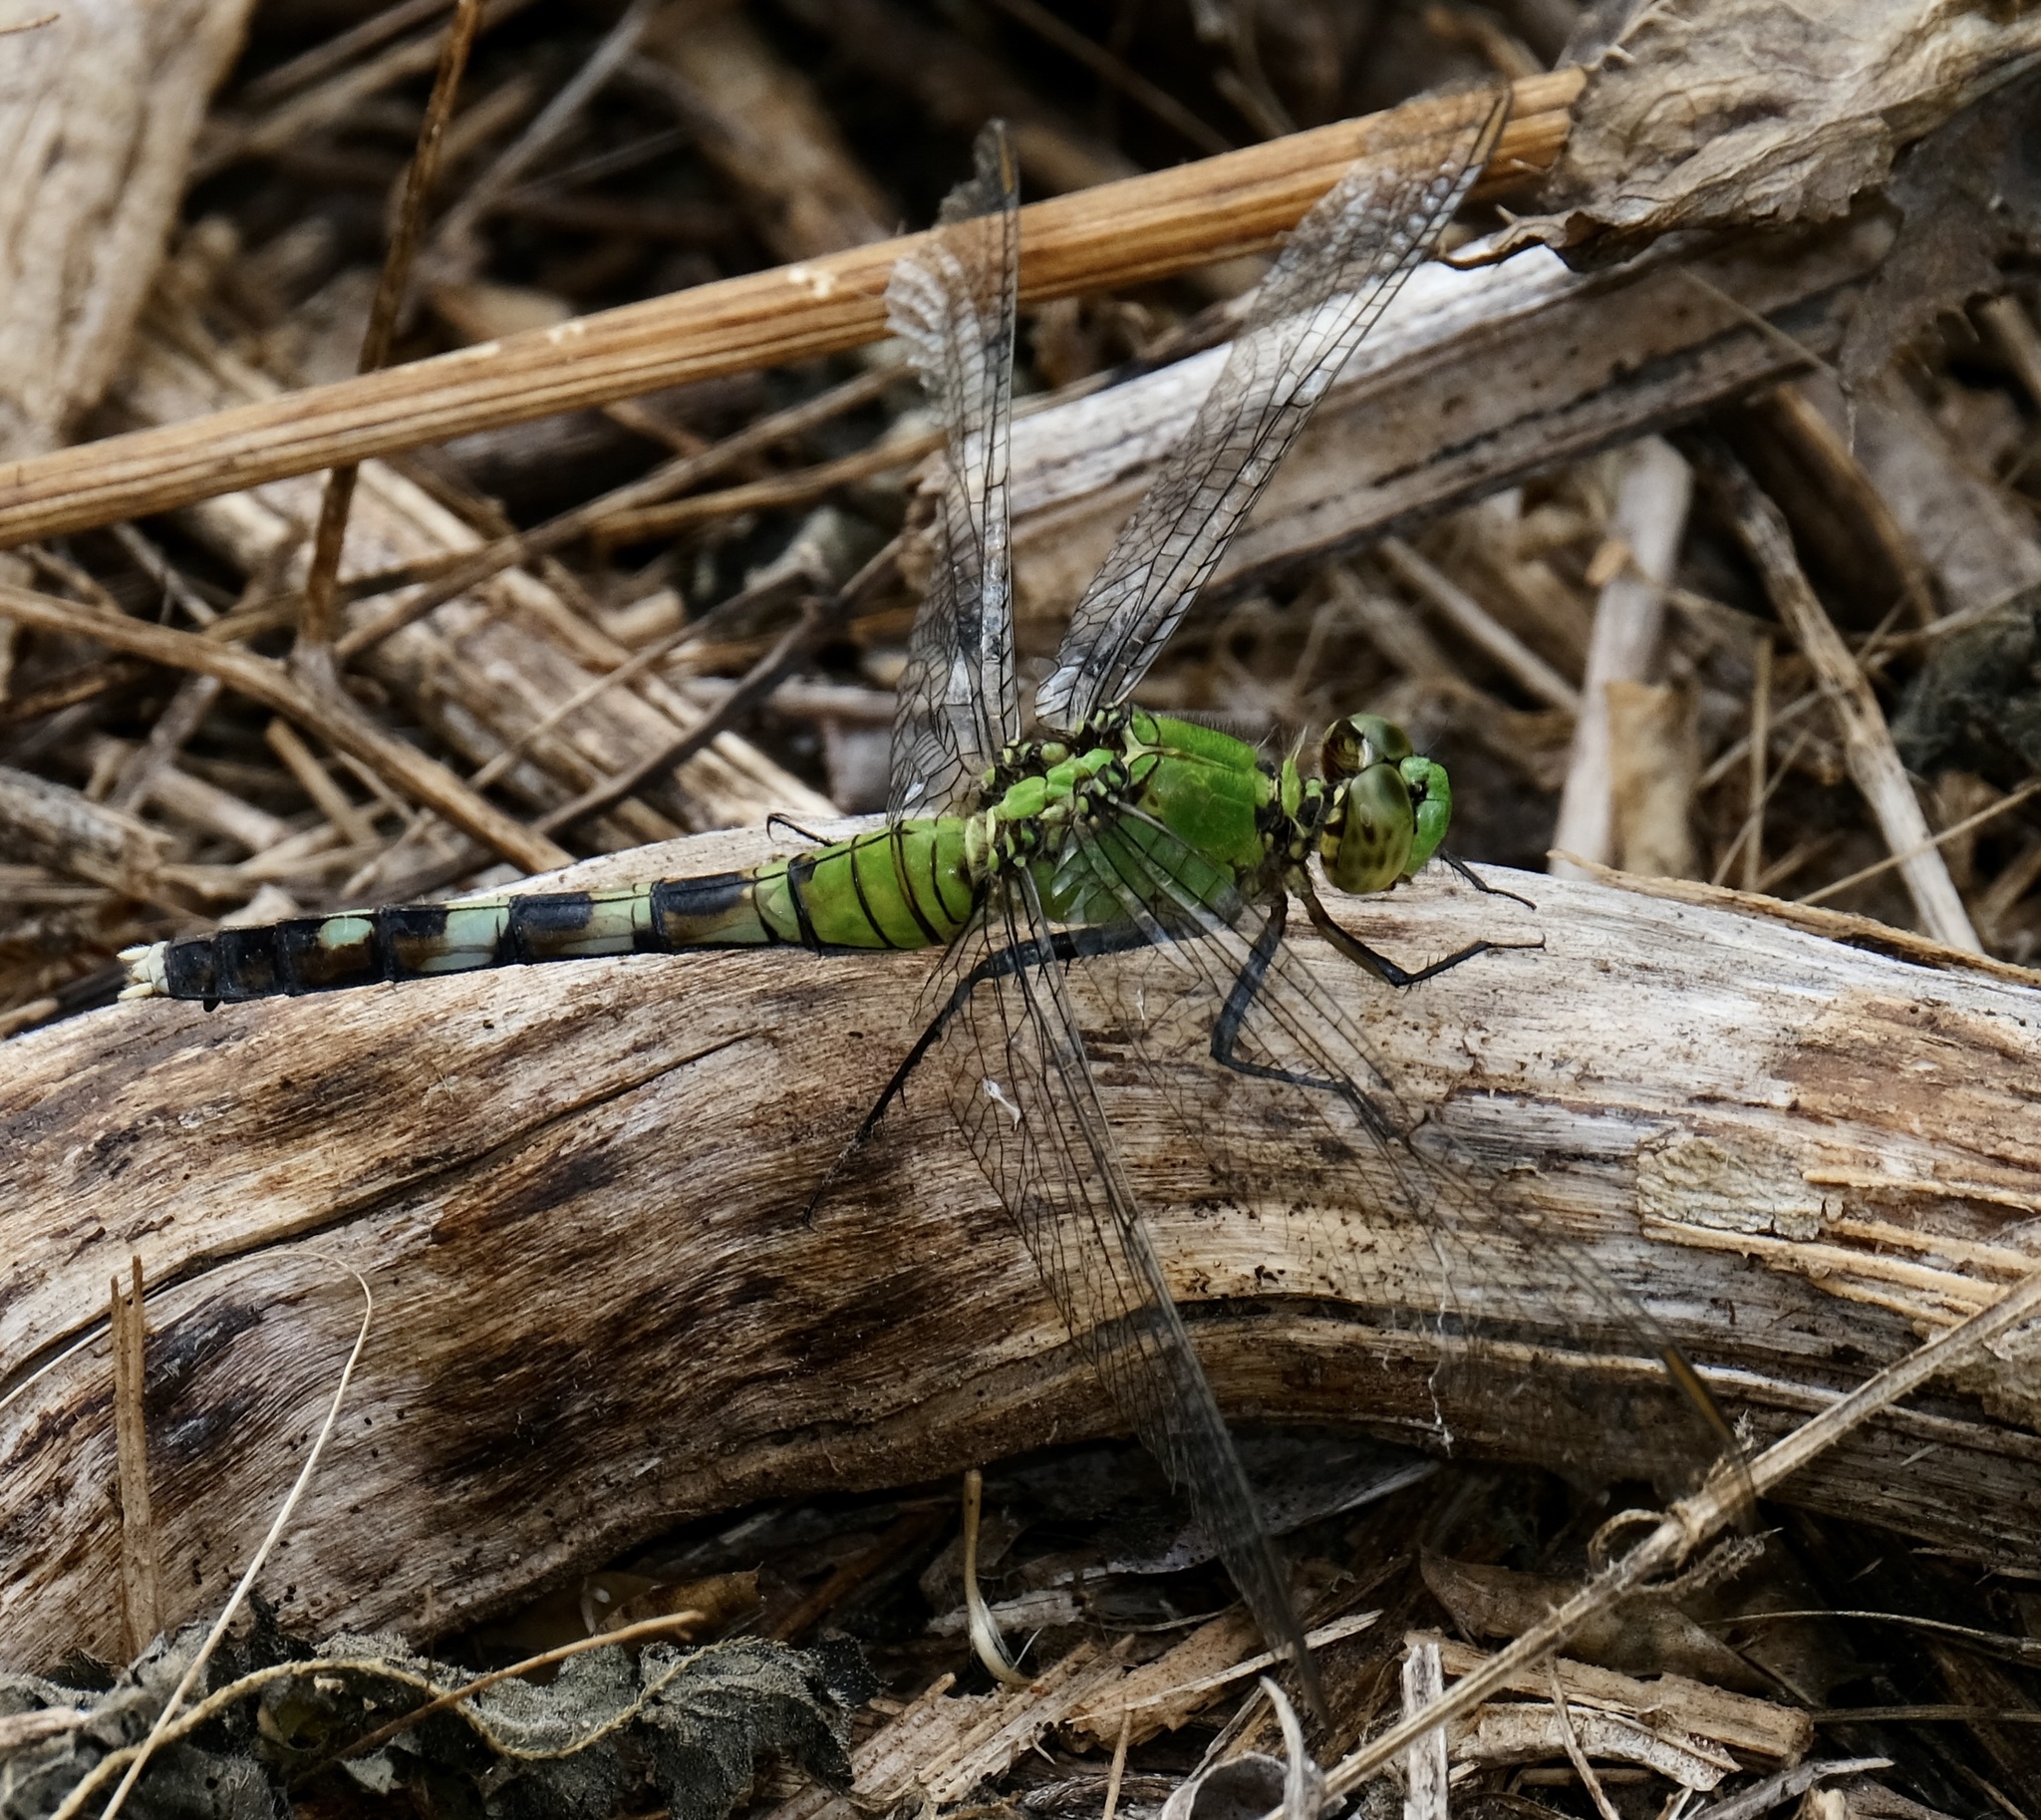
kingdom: Animalia
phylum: Arthropoda
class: Insecta
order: Odonata
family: Libellulidae
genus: Erythemis
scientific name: Erythemis simplicicollis
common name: Eastern pondhawk
